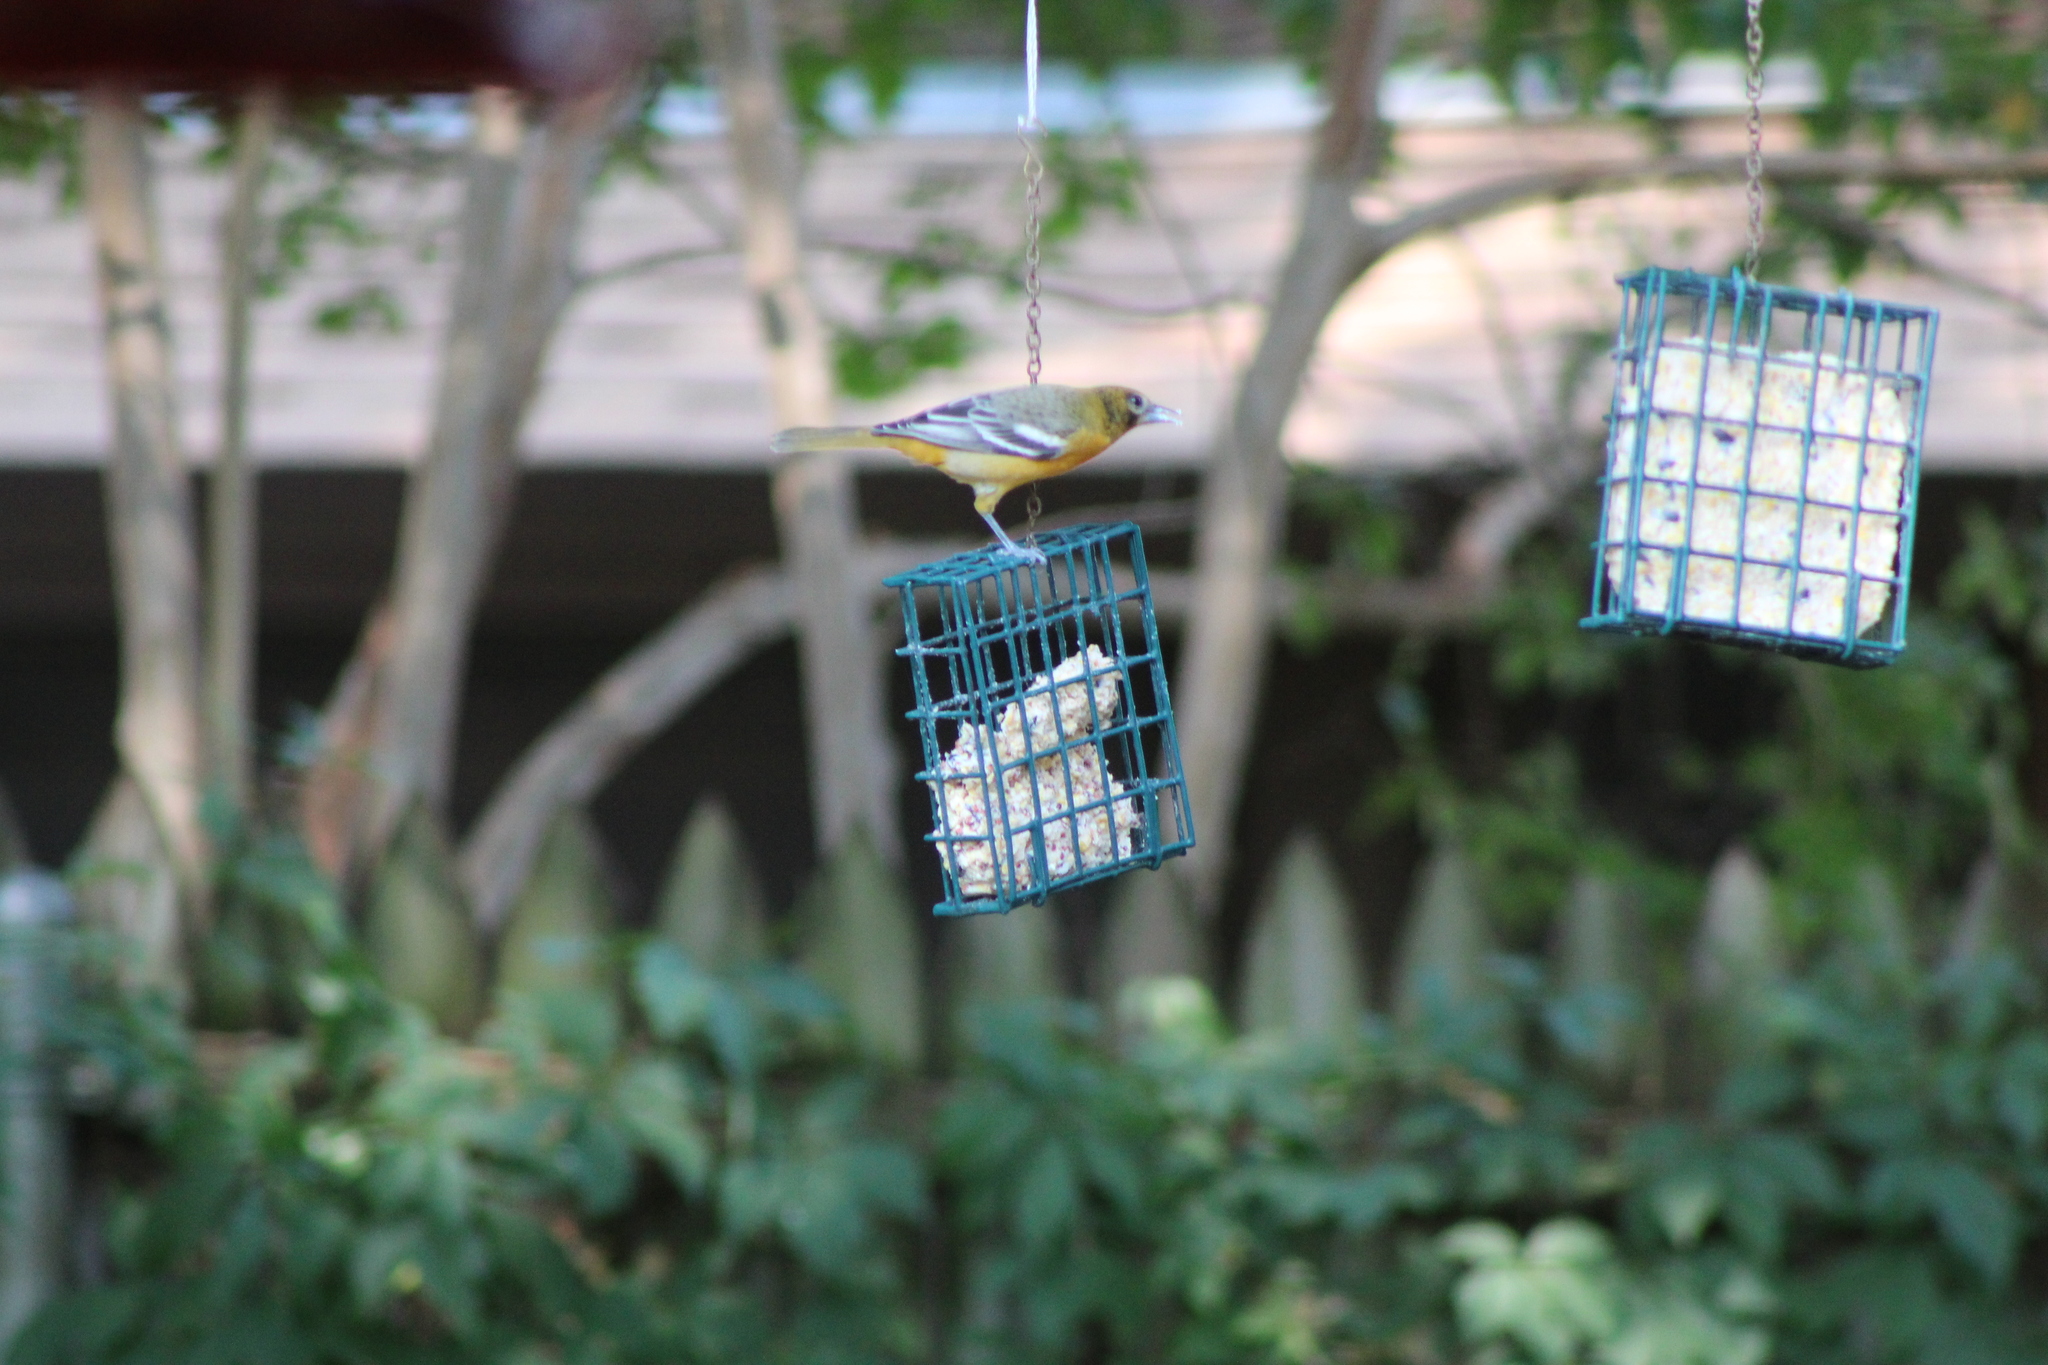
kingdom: Animalia
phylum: Chordata
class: Aves
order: Passeriformes
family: Icteridae
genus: Icterus
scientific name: Icterus galbula
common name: Baltimore oriole
